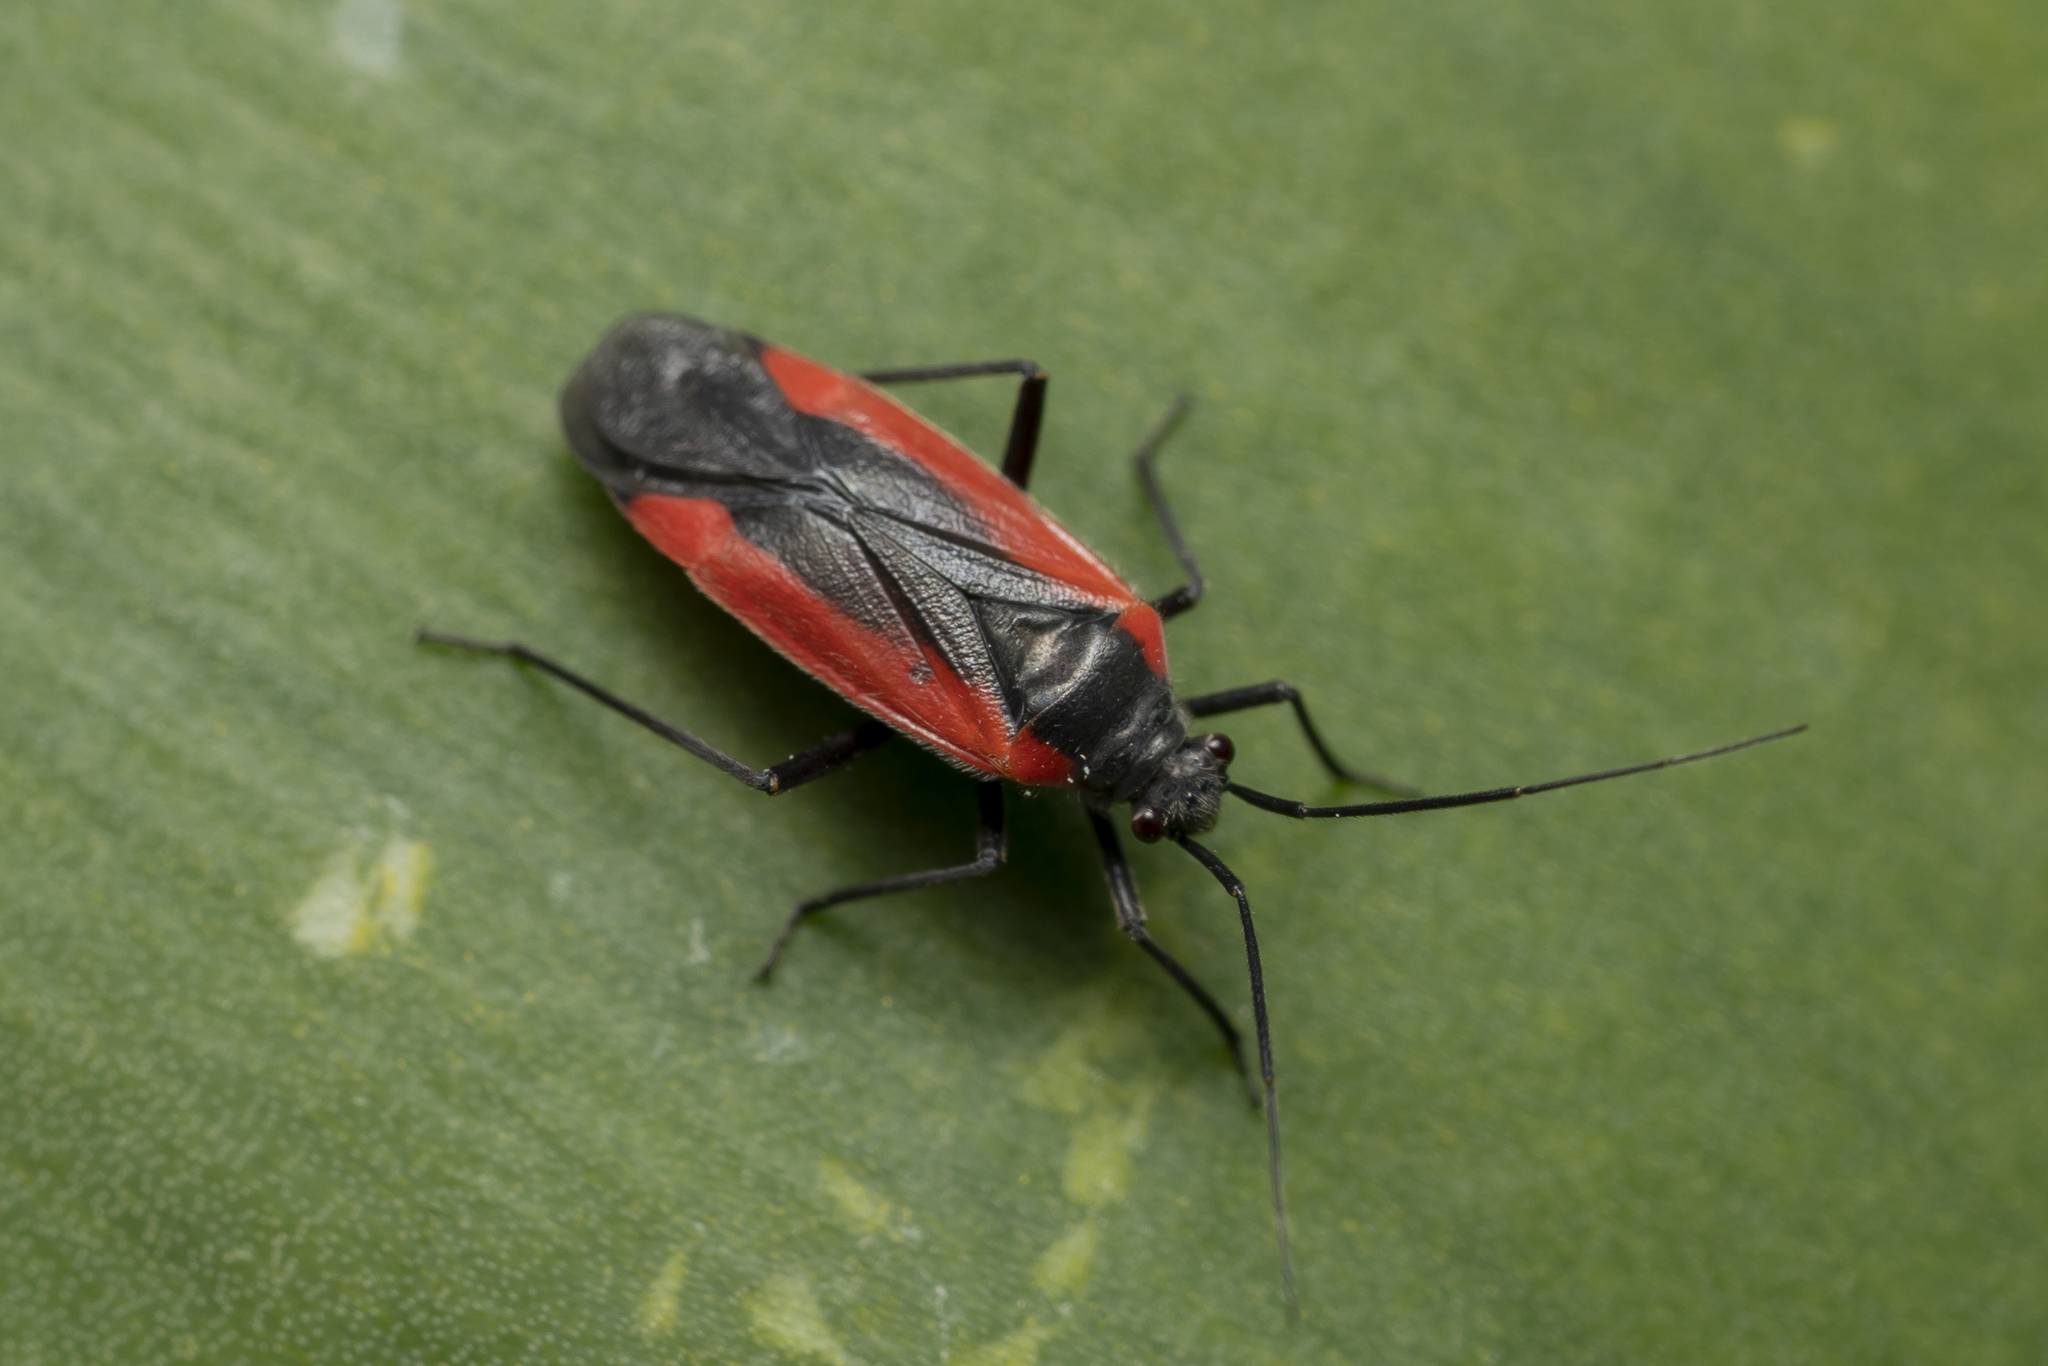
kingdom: Animalia
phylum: Arthropoda
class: Insecta
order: Hemiptera
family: Miridae
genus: Dionconotus
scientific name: Dionconotus neglectus
